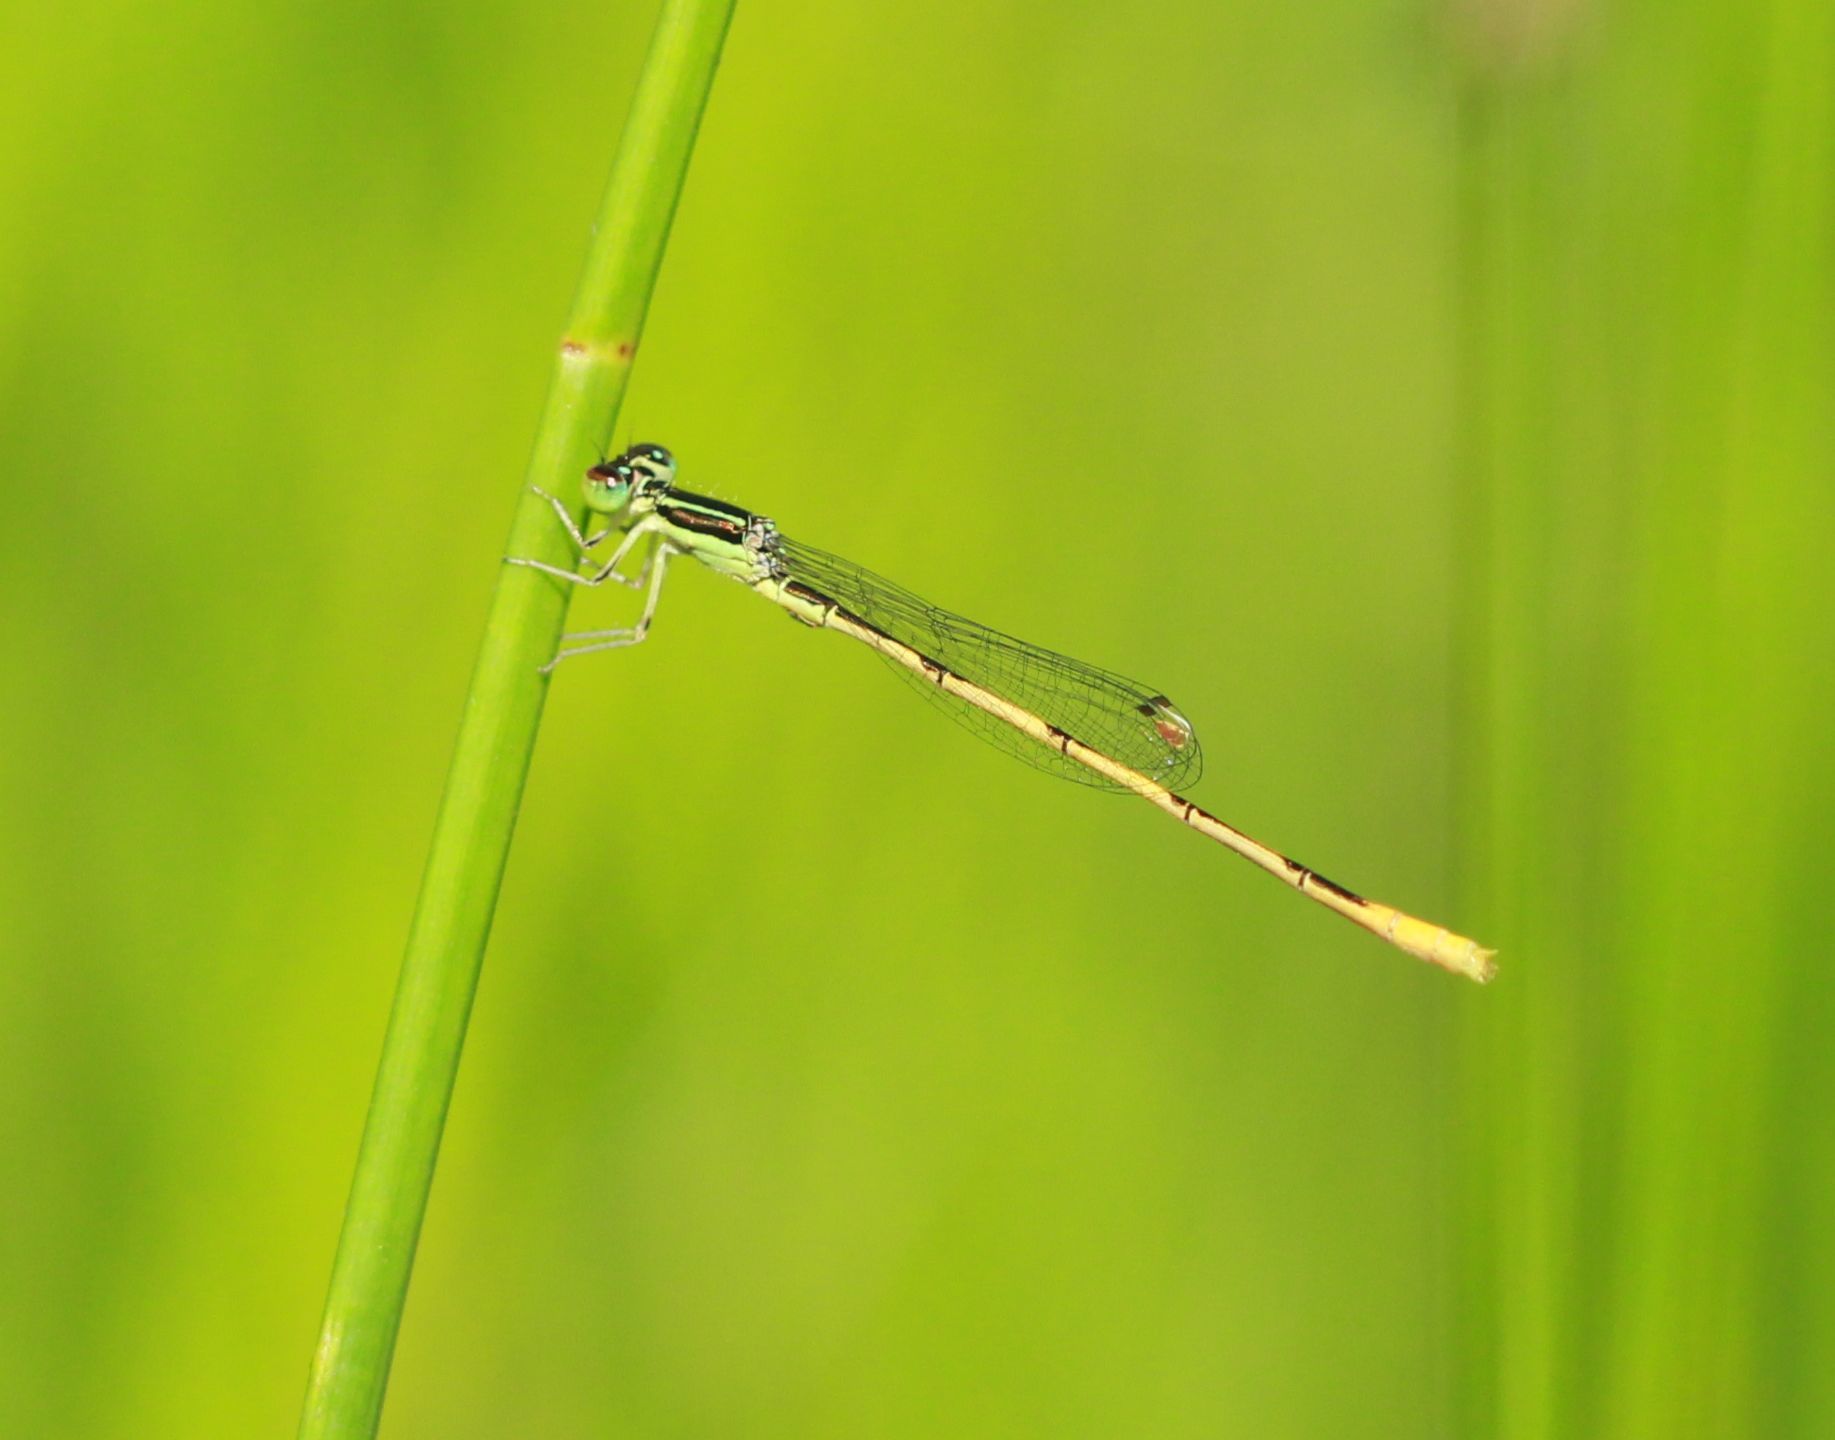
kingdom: Animalia
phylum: Arthropoda
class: Insecta
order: Odonata
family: Coenagrionidae
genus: Ischnura
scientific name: Ischnura hastata
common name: Citrine forktail
